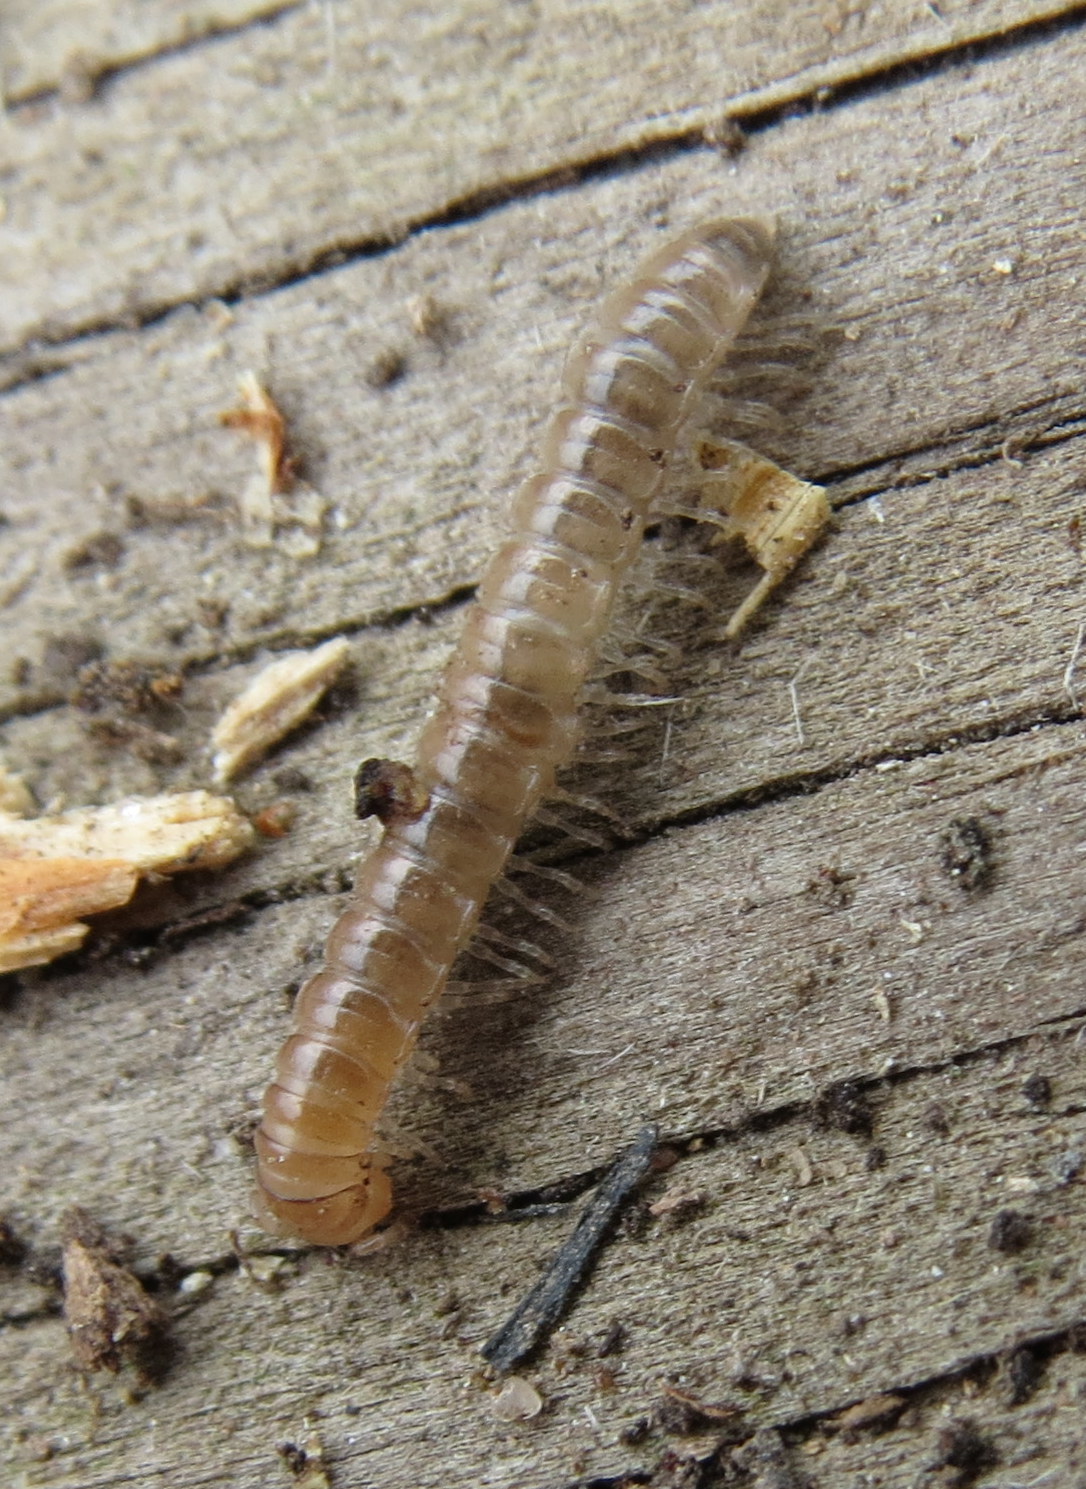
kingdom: Animalia
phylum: Arthropoda
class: Diplopoda
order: Polydesmida
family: Paradoxosomatidae
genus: Oxidus
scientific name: Oxidus gracilis
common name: Greenhouse millipede
